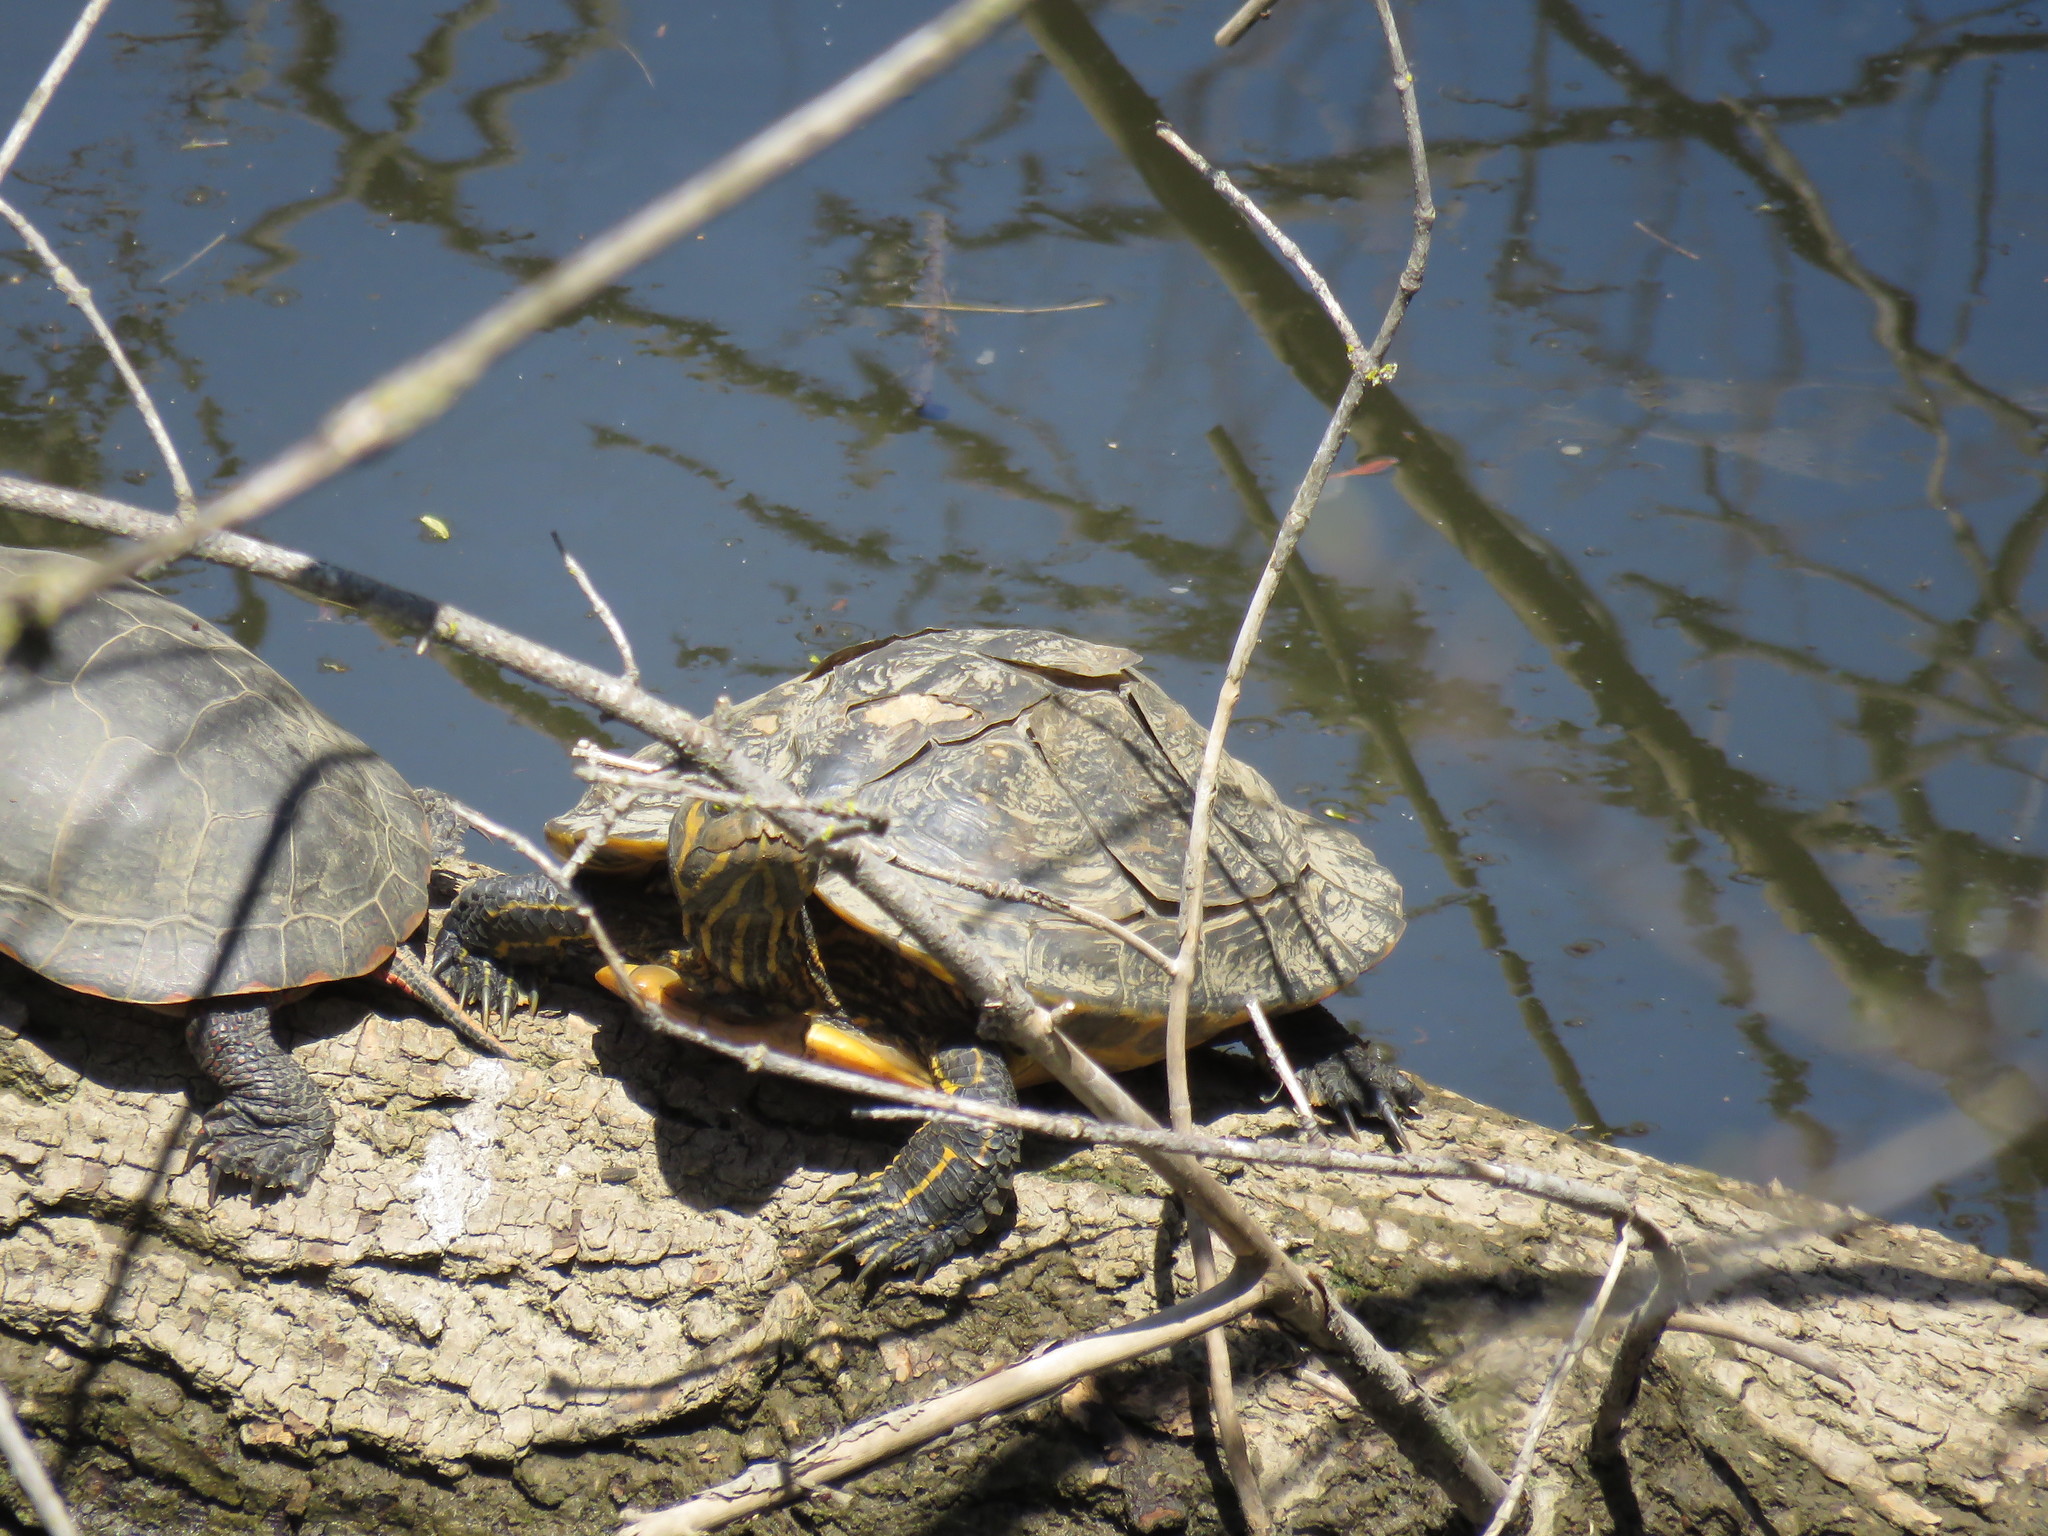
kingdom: Animalia
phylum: Chordata
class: Testudines
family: Emydidae
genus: Trachemys
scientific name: Trachemys scripta
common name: Slider
